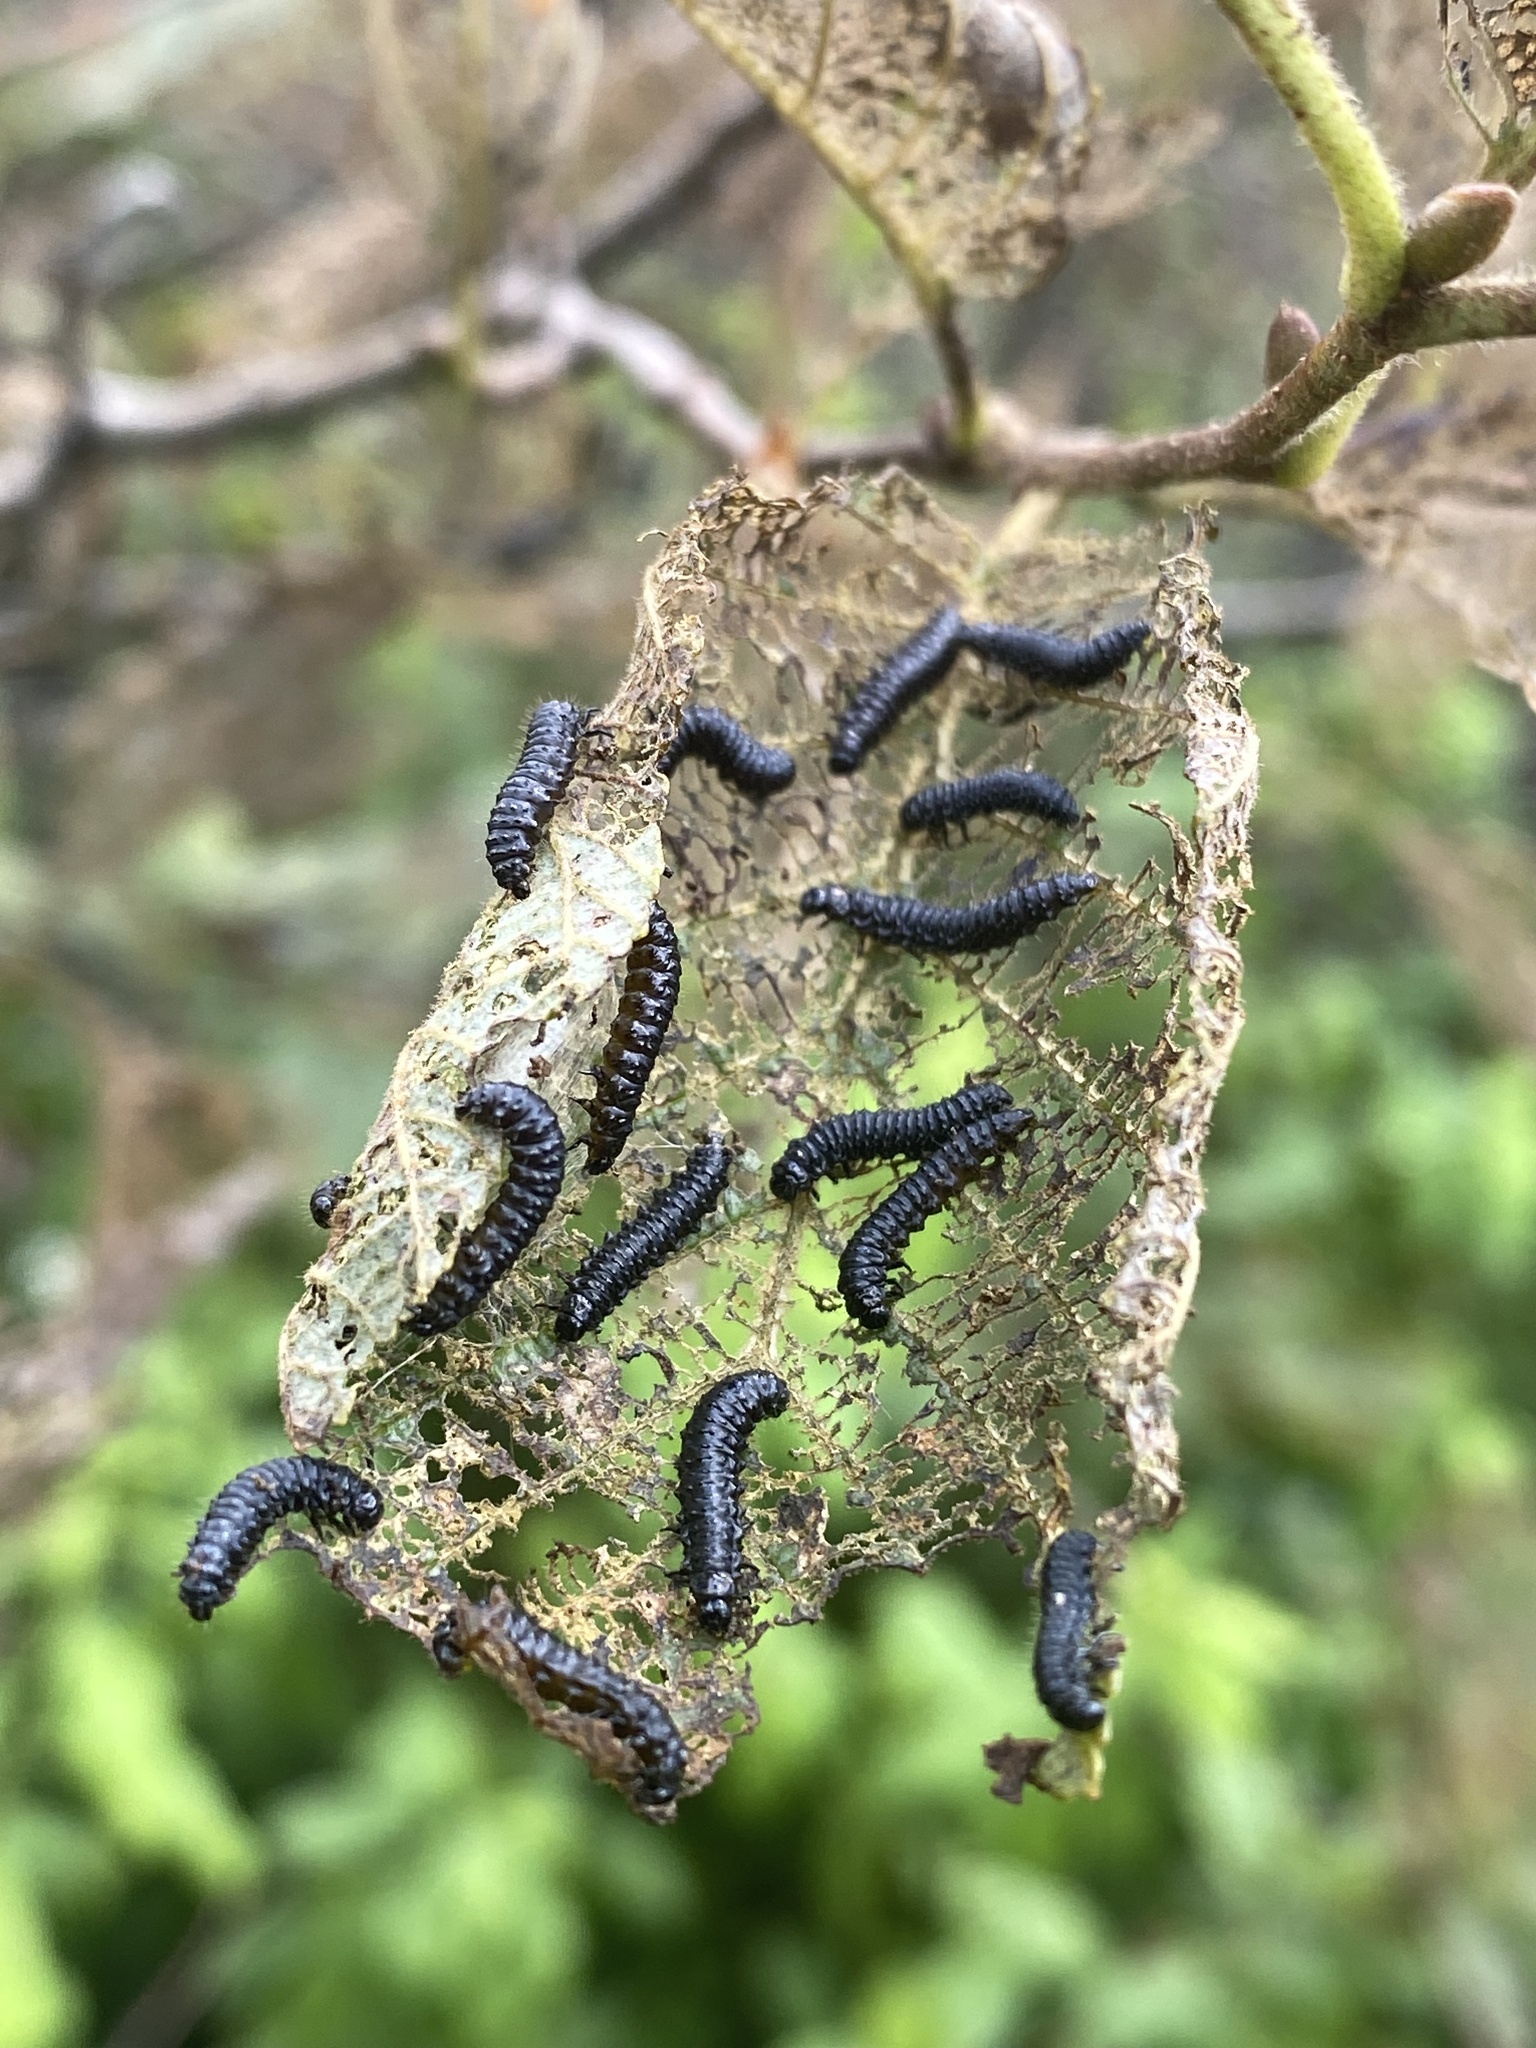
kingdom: Animalia
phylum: Arthropoda
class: Insecta
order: Coleoptera
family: Chrysomelidae
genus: Altica
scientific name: Altica ambiens
